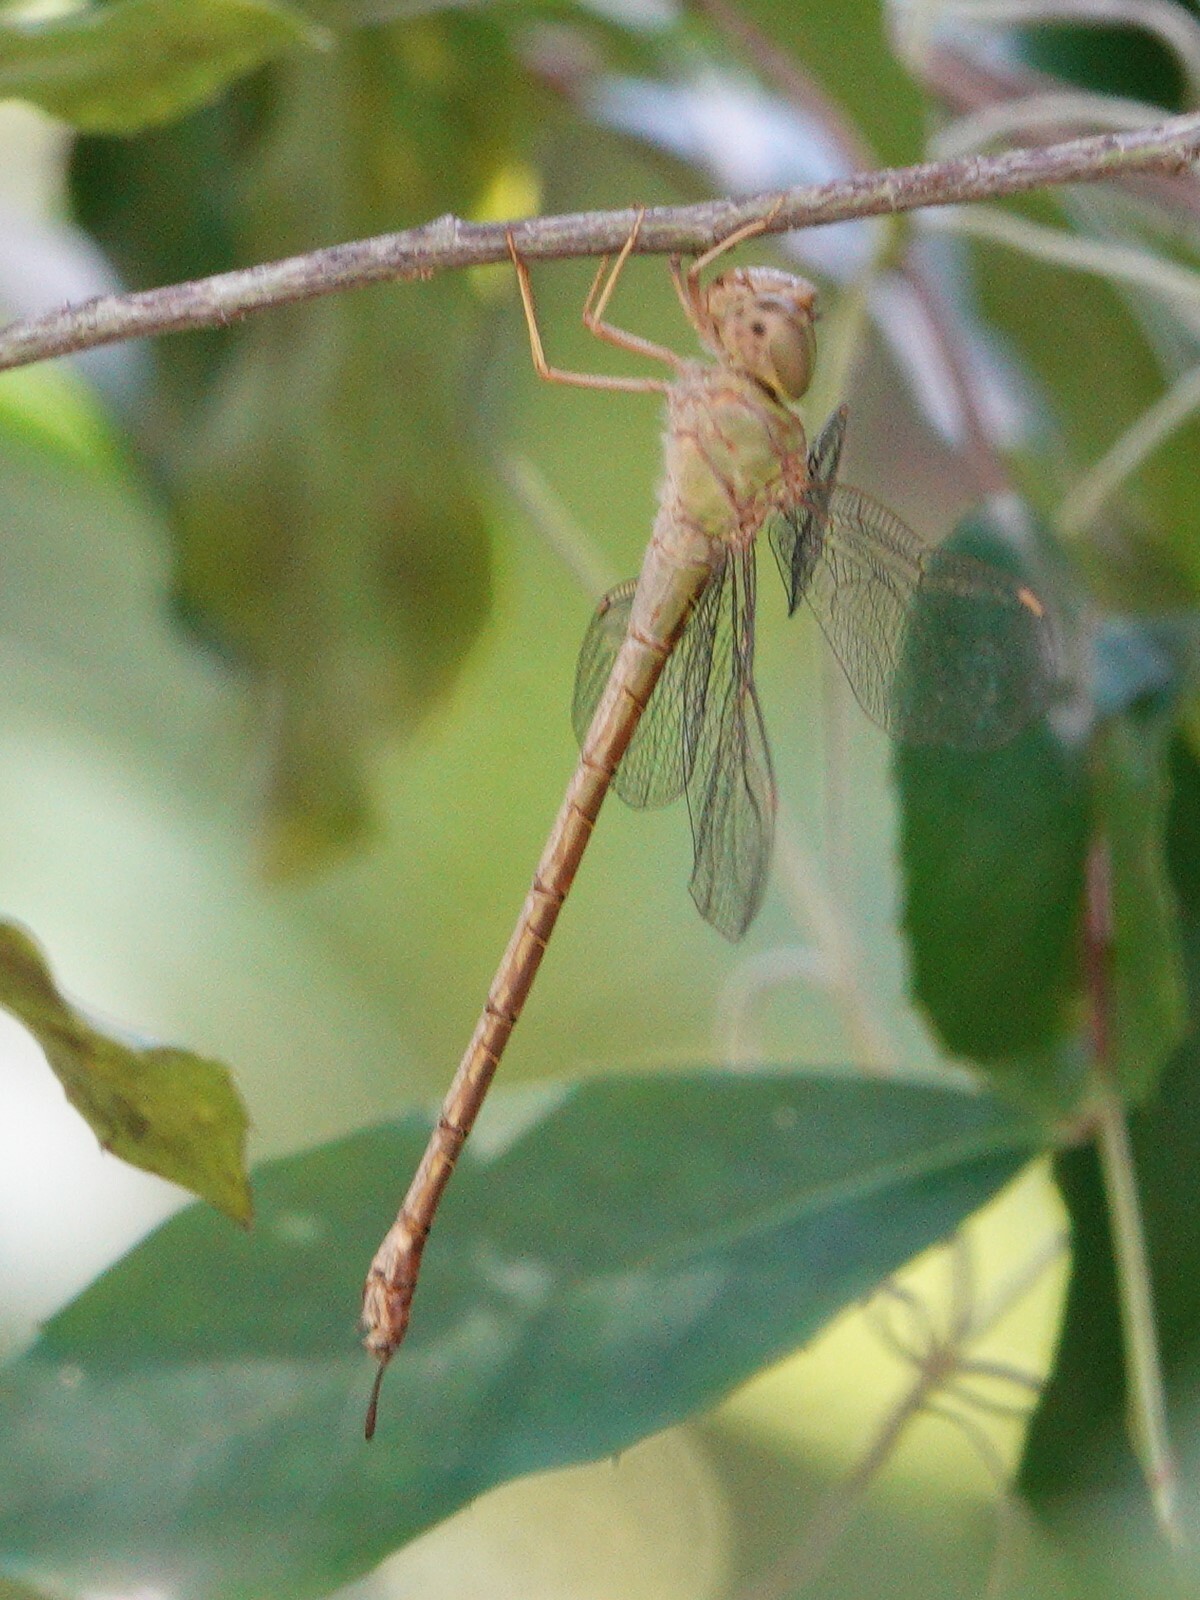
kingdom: Animalia
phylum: Arthropoda
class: Insecta
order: Odonata
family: Aeshnidae
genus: Triacanthagyna
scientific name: Triacanthagyna septima
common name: Pale-green darner
